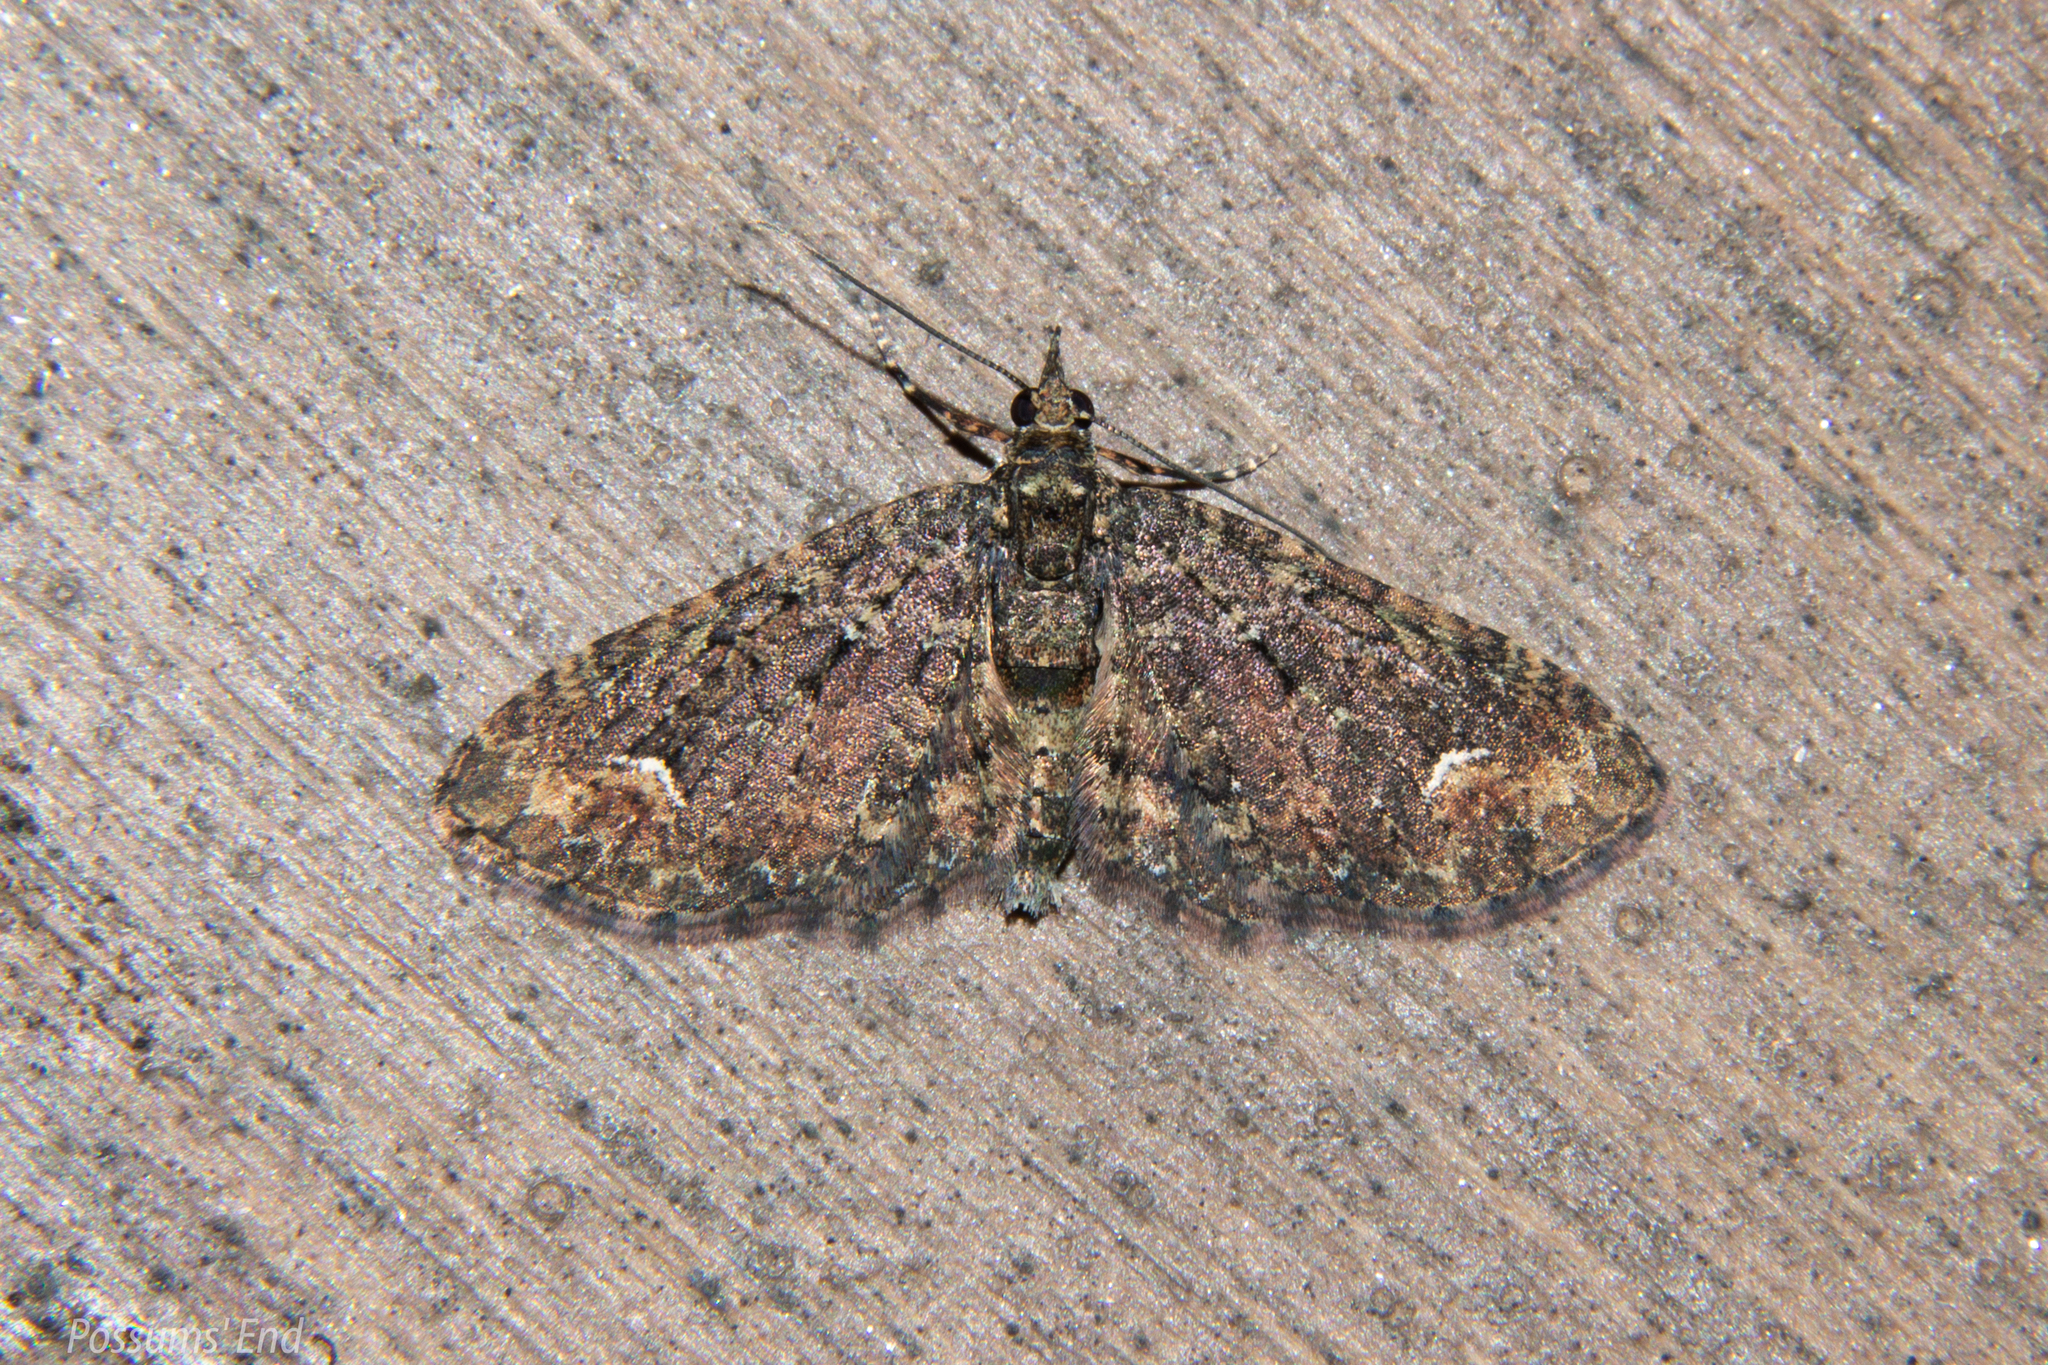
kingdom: Animalia
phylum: Arthropoda
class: Insecta
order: Lepidoptera
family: Geometridae
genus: Pasiphilodes
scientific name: Pasiphilodes testulata
